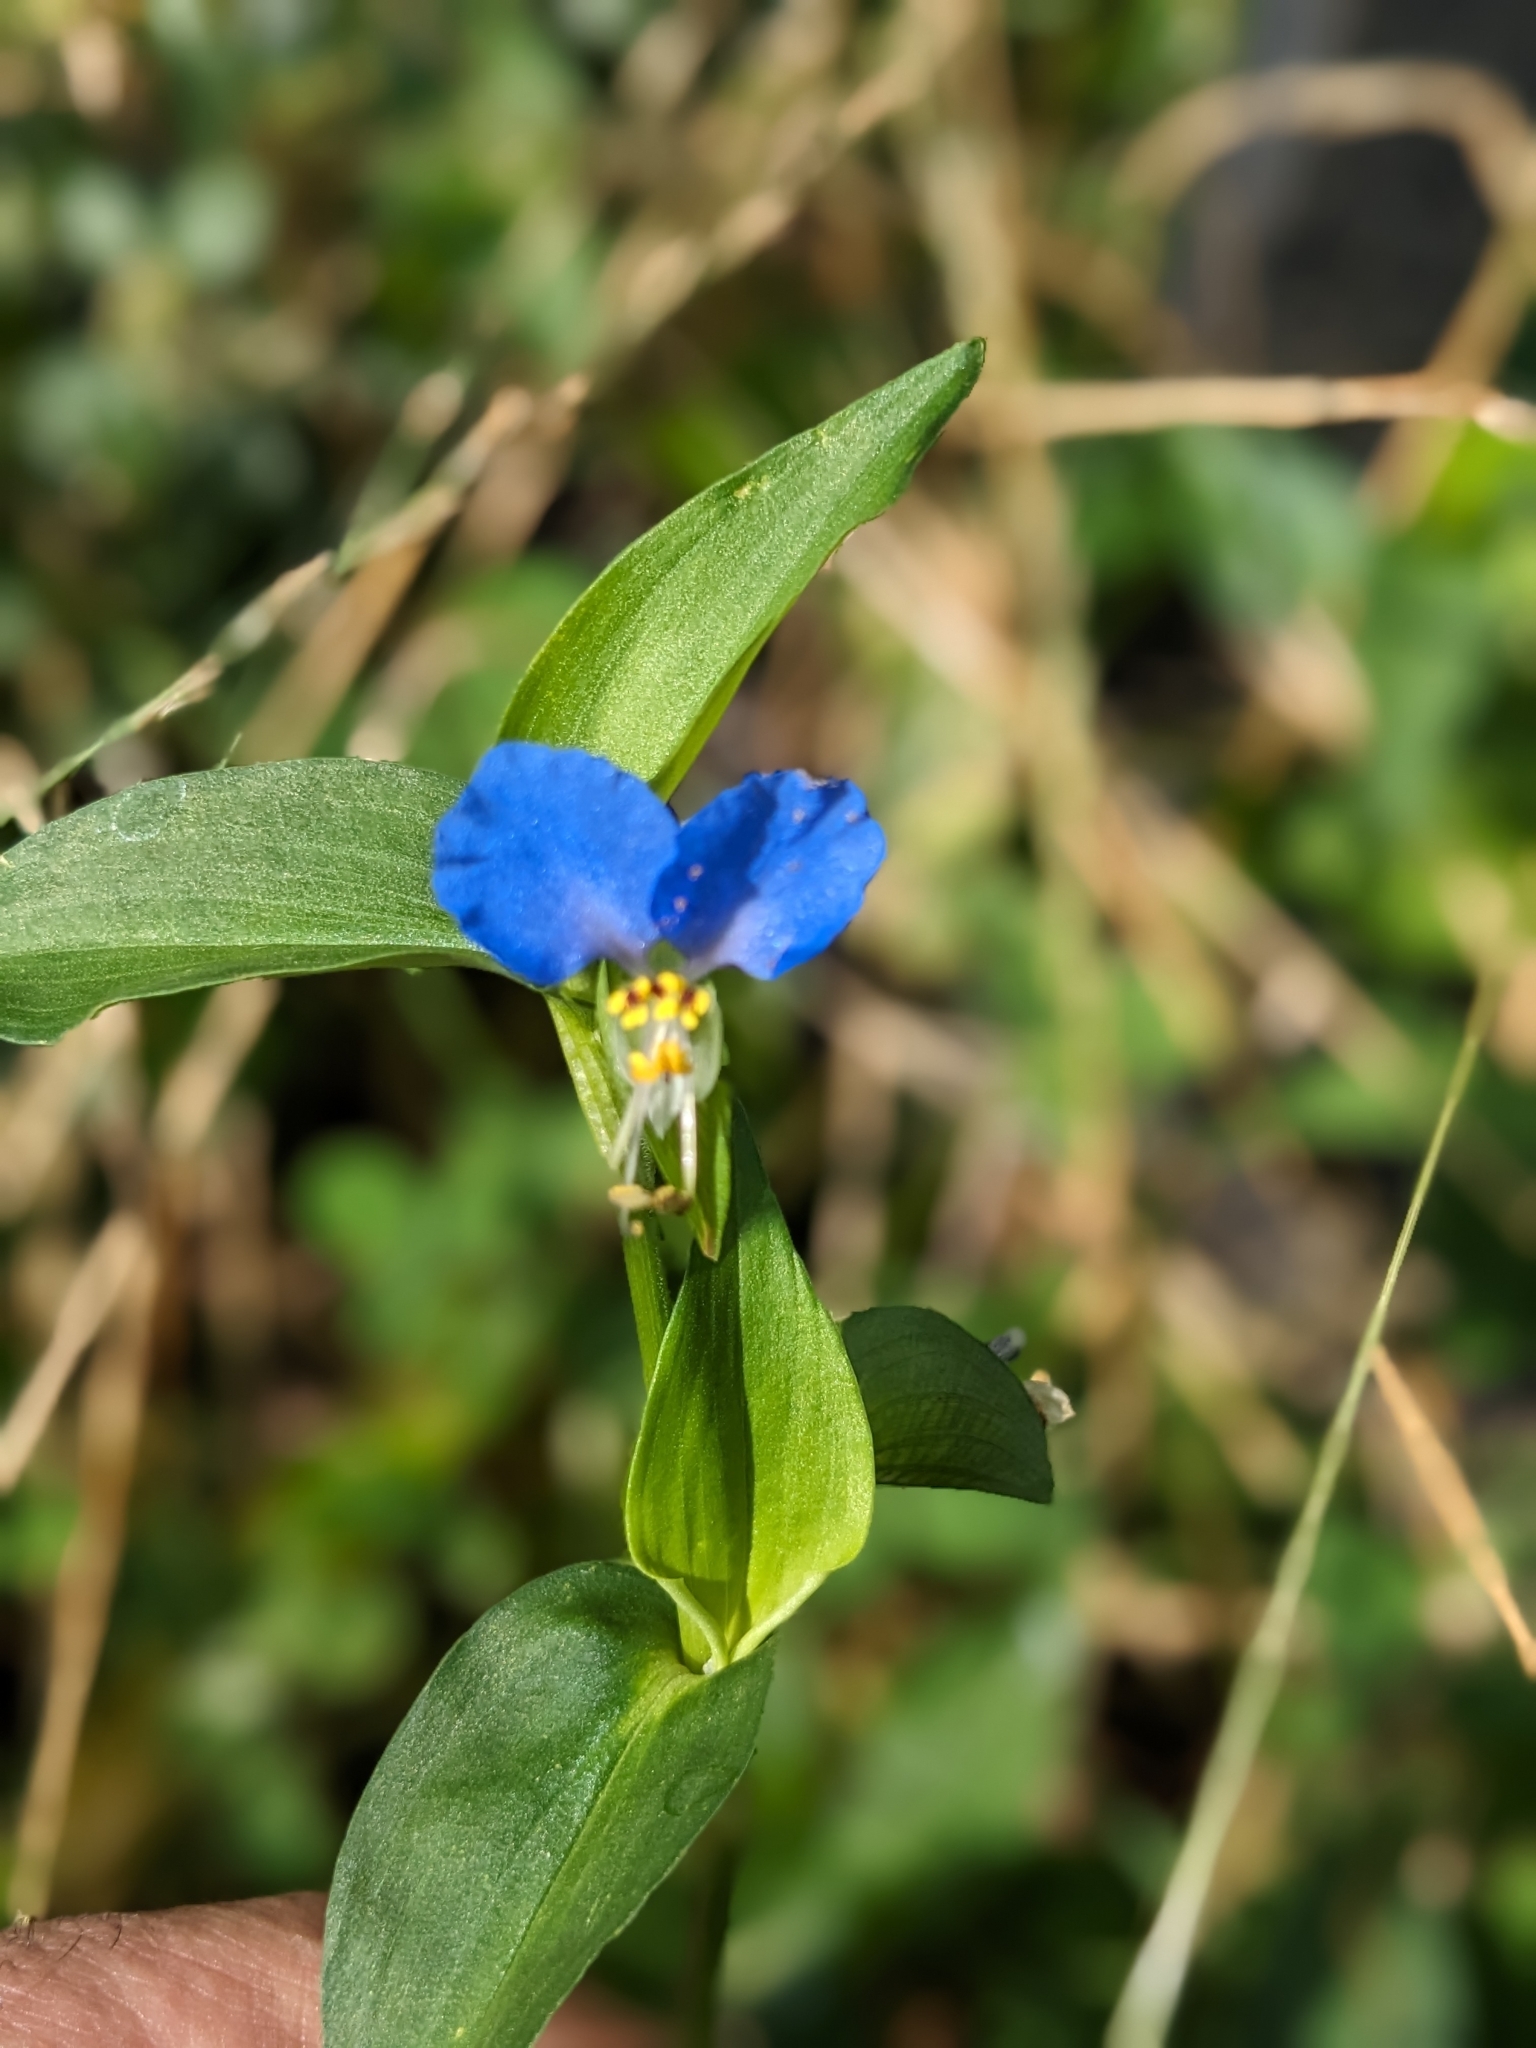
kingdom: Plantae
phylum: Tracheophyta
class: Liliopsida
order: Commelinales
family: Commelinaceae
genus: Commelina
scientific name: Commelina communis
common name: Asiatic dayflower
